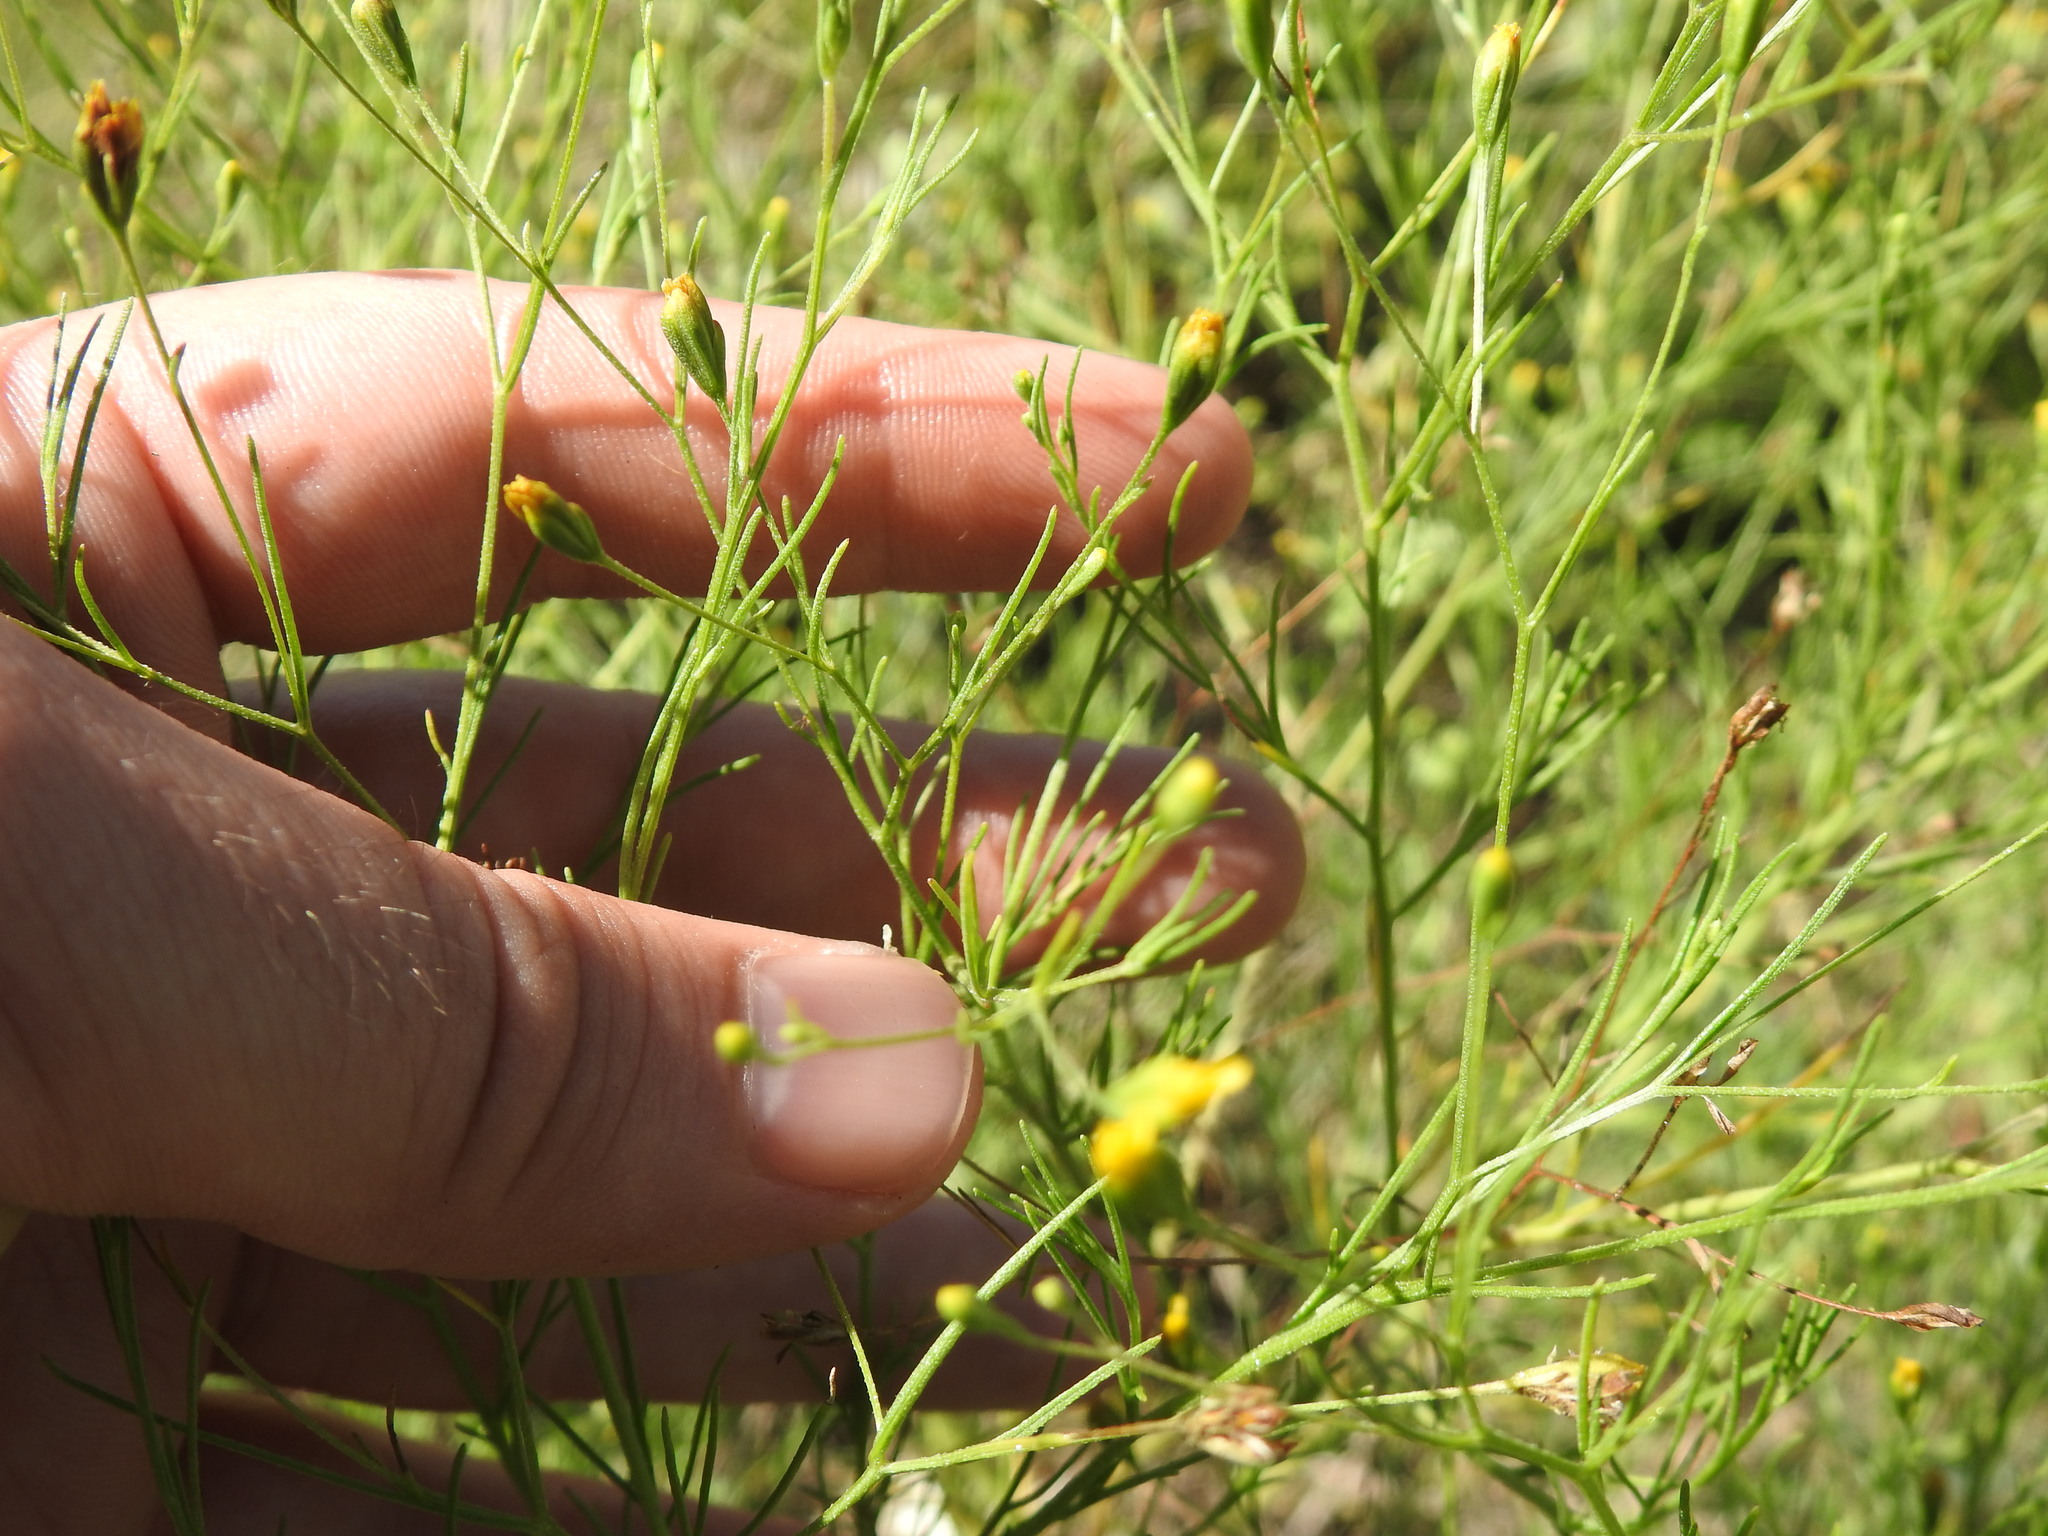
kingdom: Plantae
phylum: Tracheophyta
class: Magnoliopsida
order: Asterales
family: Asteraceae
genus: Schkuhria
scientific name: Schkuhria pinnata
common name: Dwarf marigold
